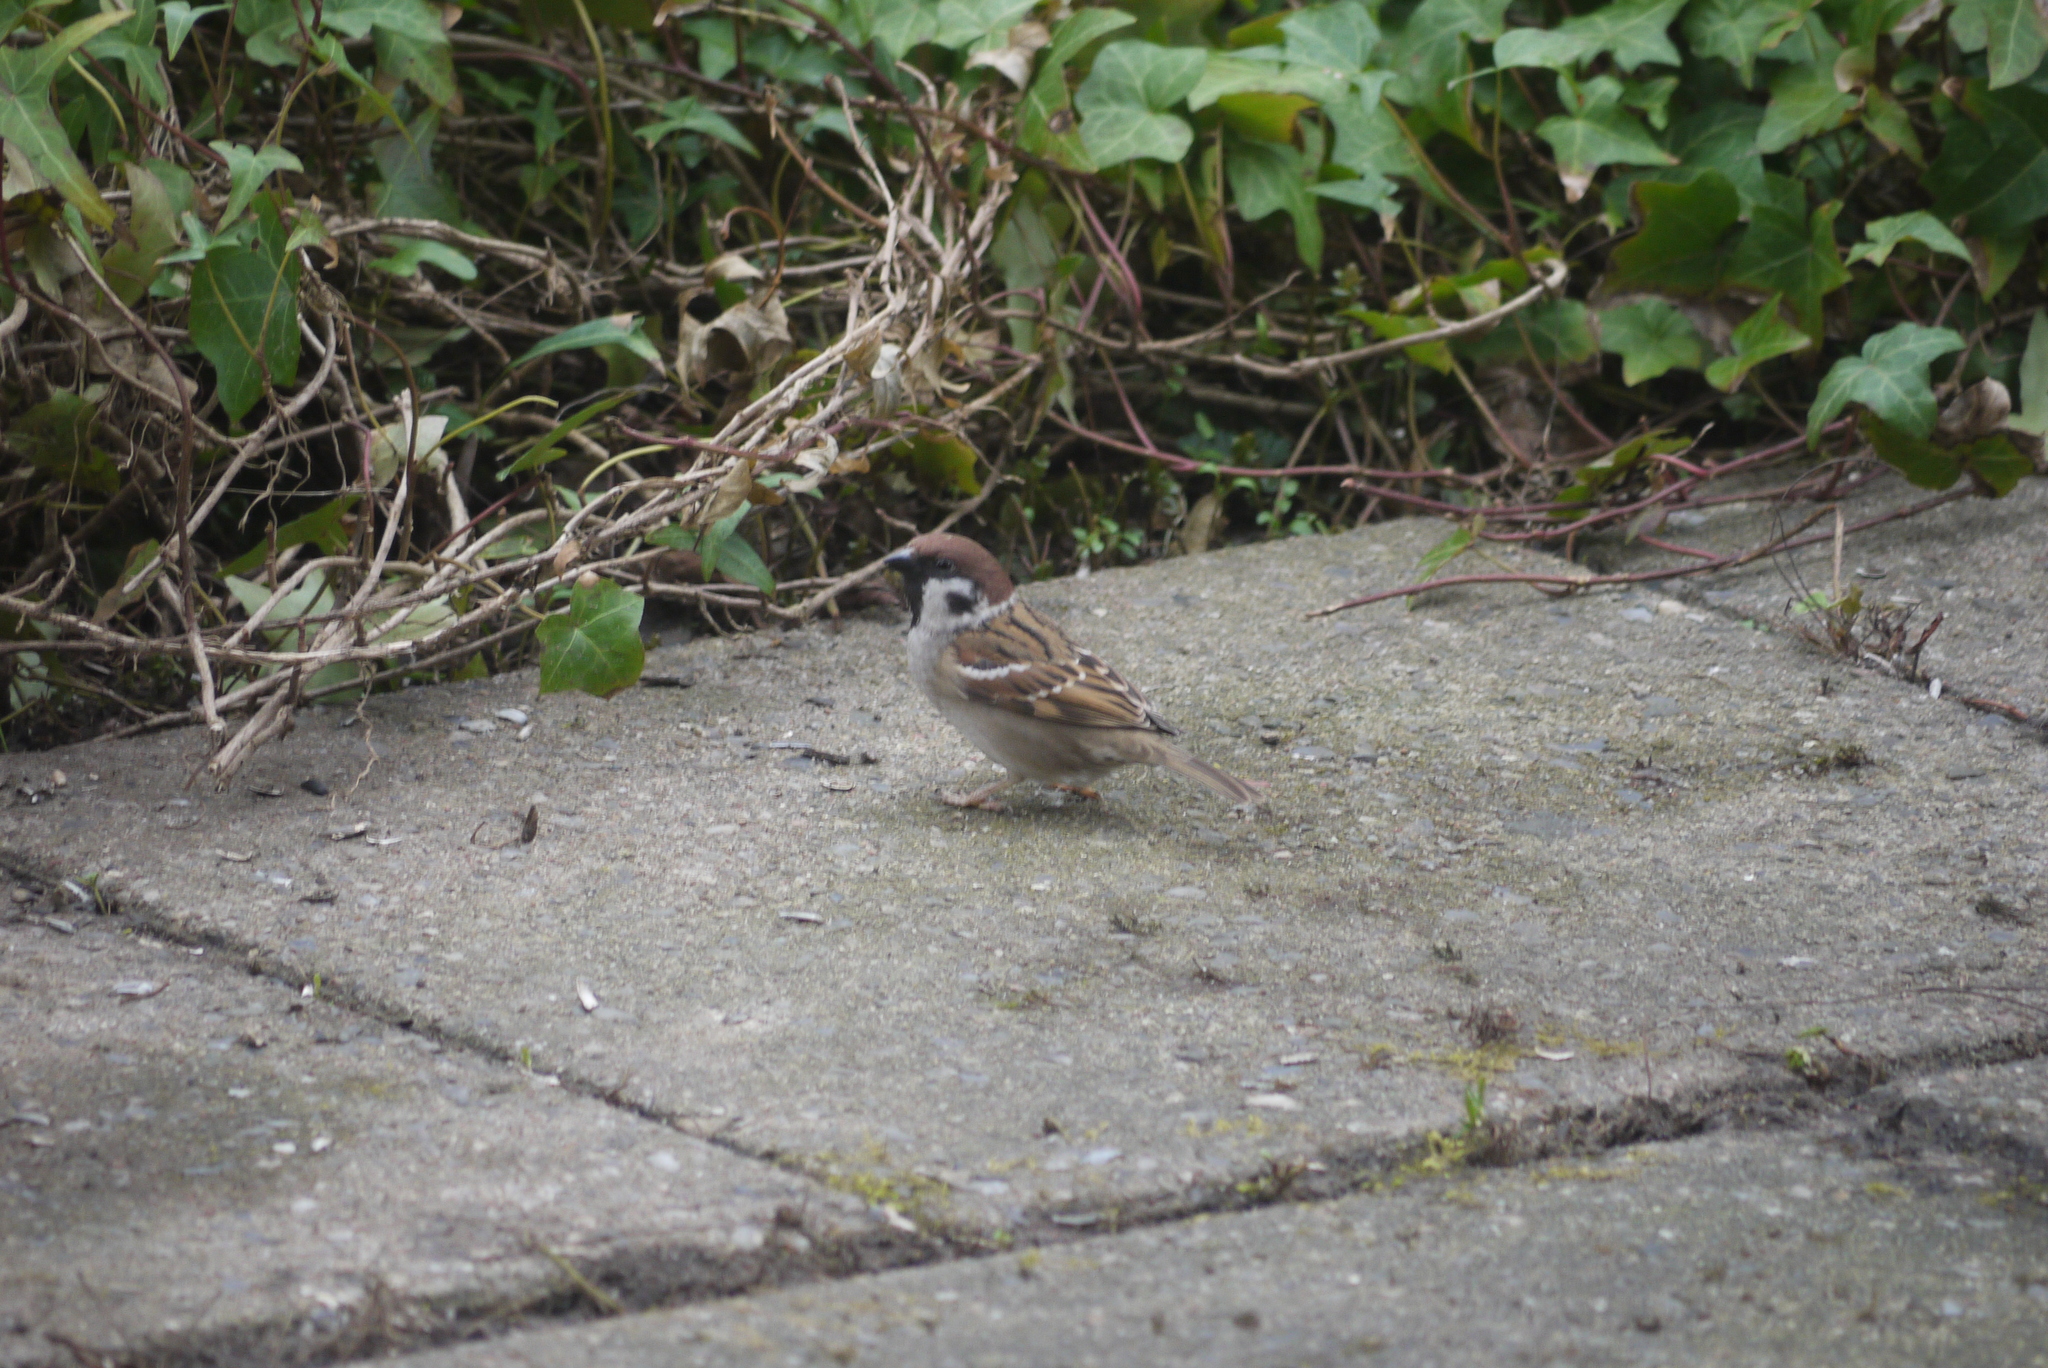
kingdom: Animalia
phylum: Chordata
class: Aves
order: Passeriformes
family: Passeridae
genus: Passer
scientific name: Passer montanus
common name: Eurasian tree sparrow
